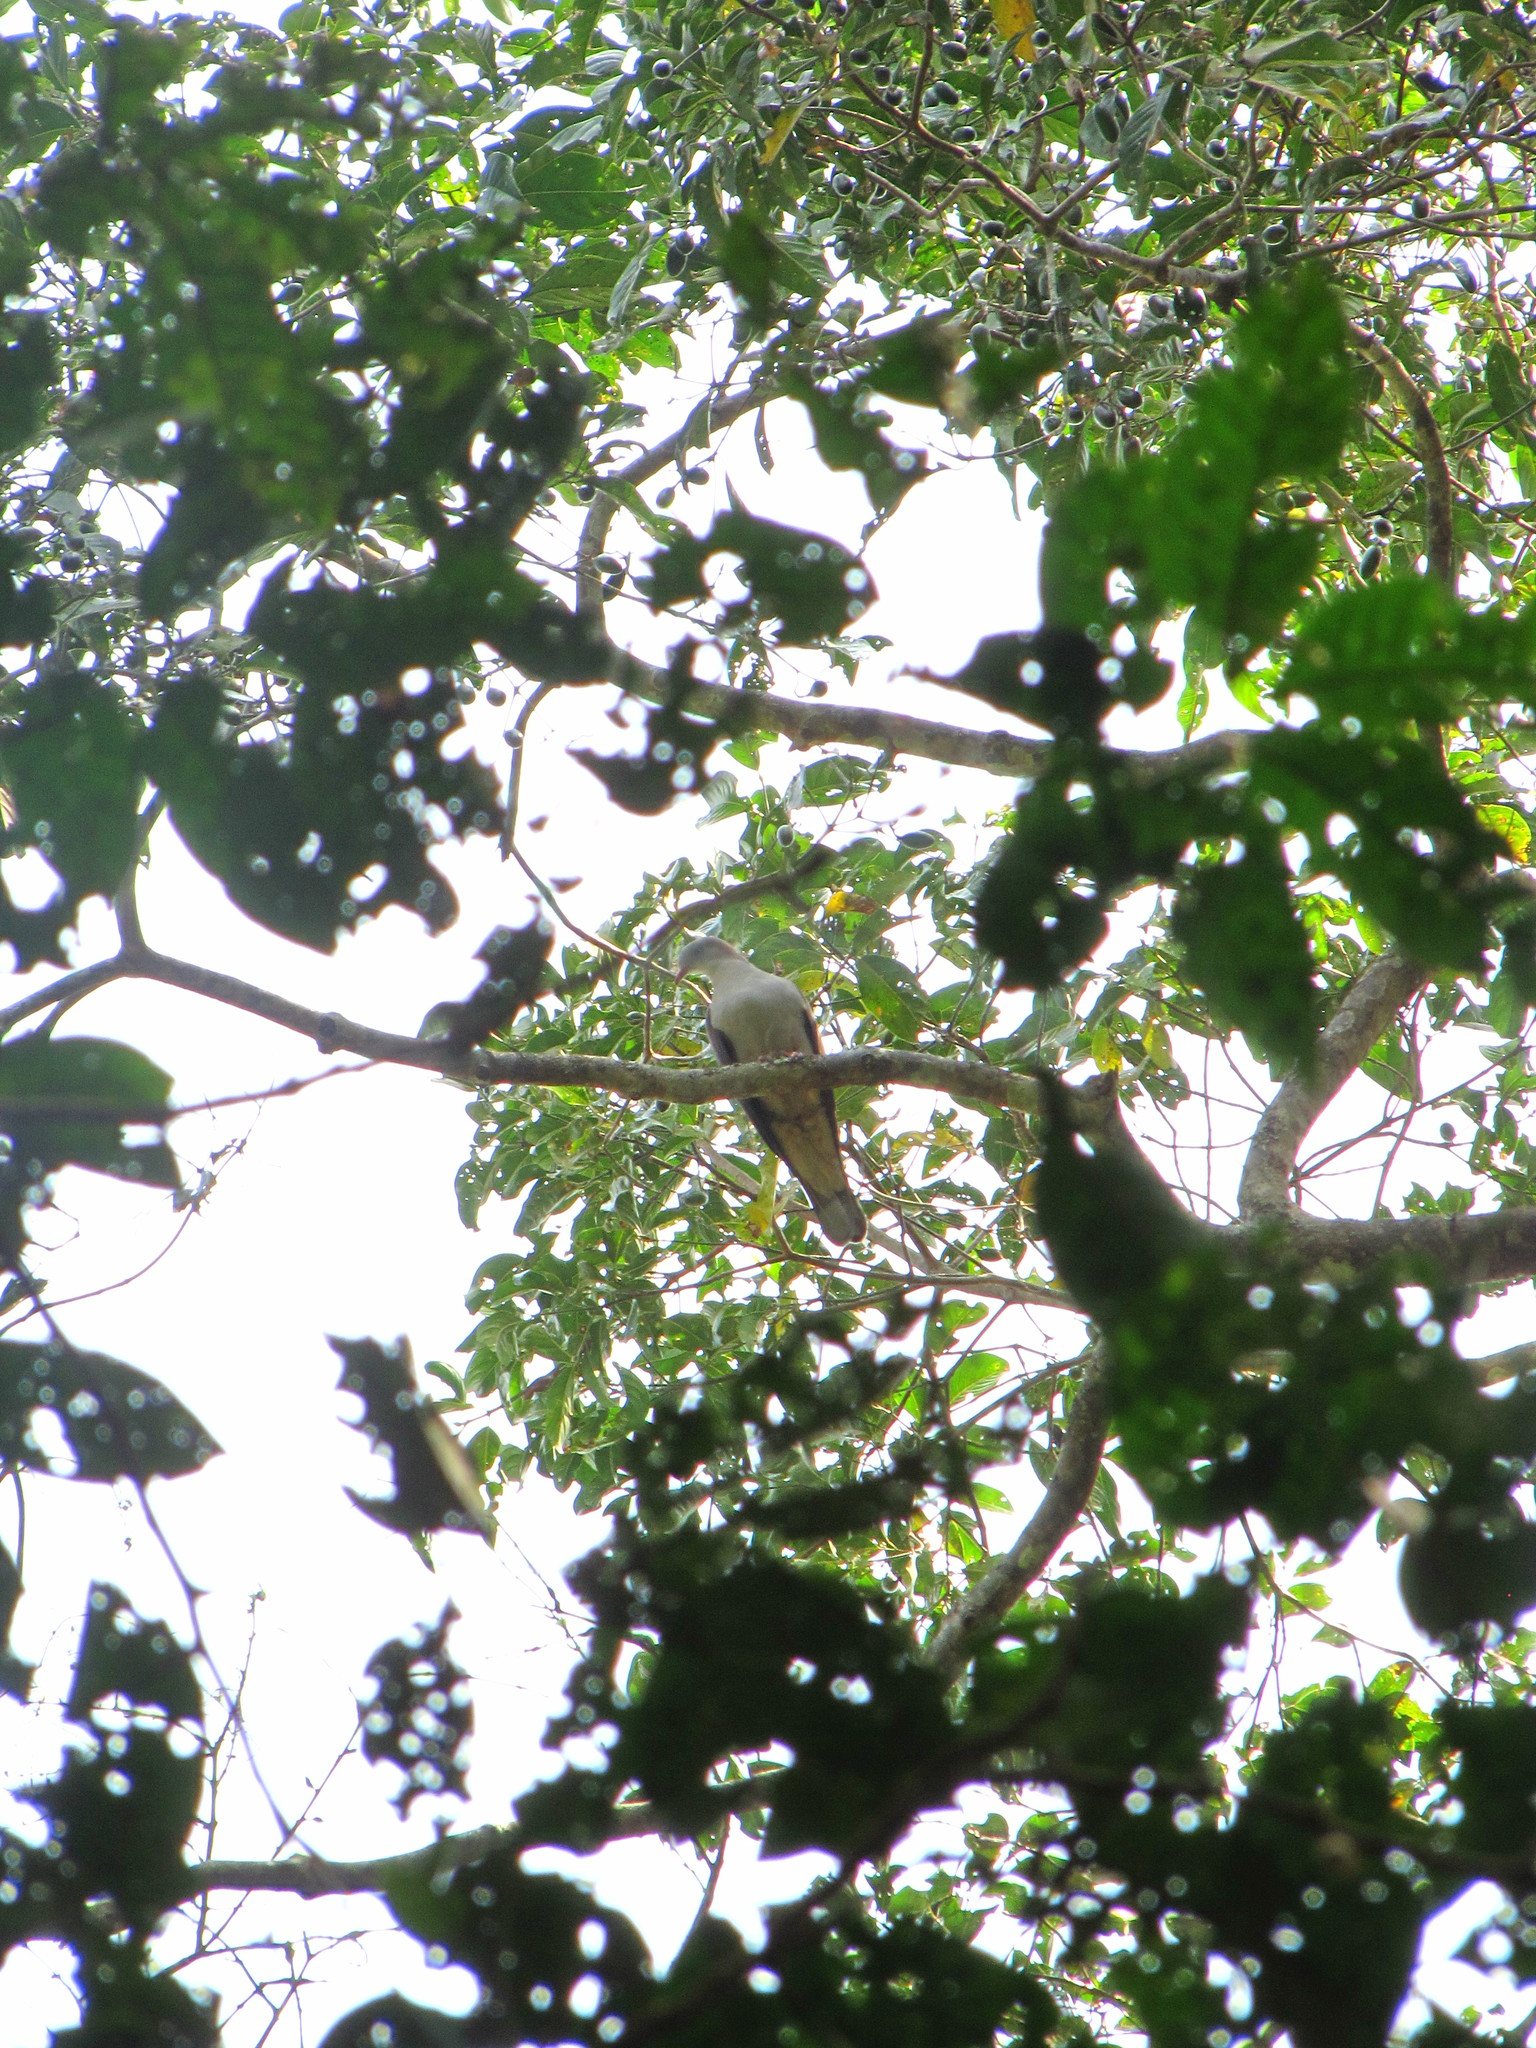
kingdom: Animalia
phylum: Chordata
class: Aves
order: Columbiformes
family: Columbidae
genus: Ducula
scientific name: Ducula badia
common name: Mountain imperial pigeon
